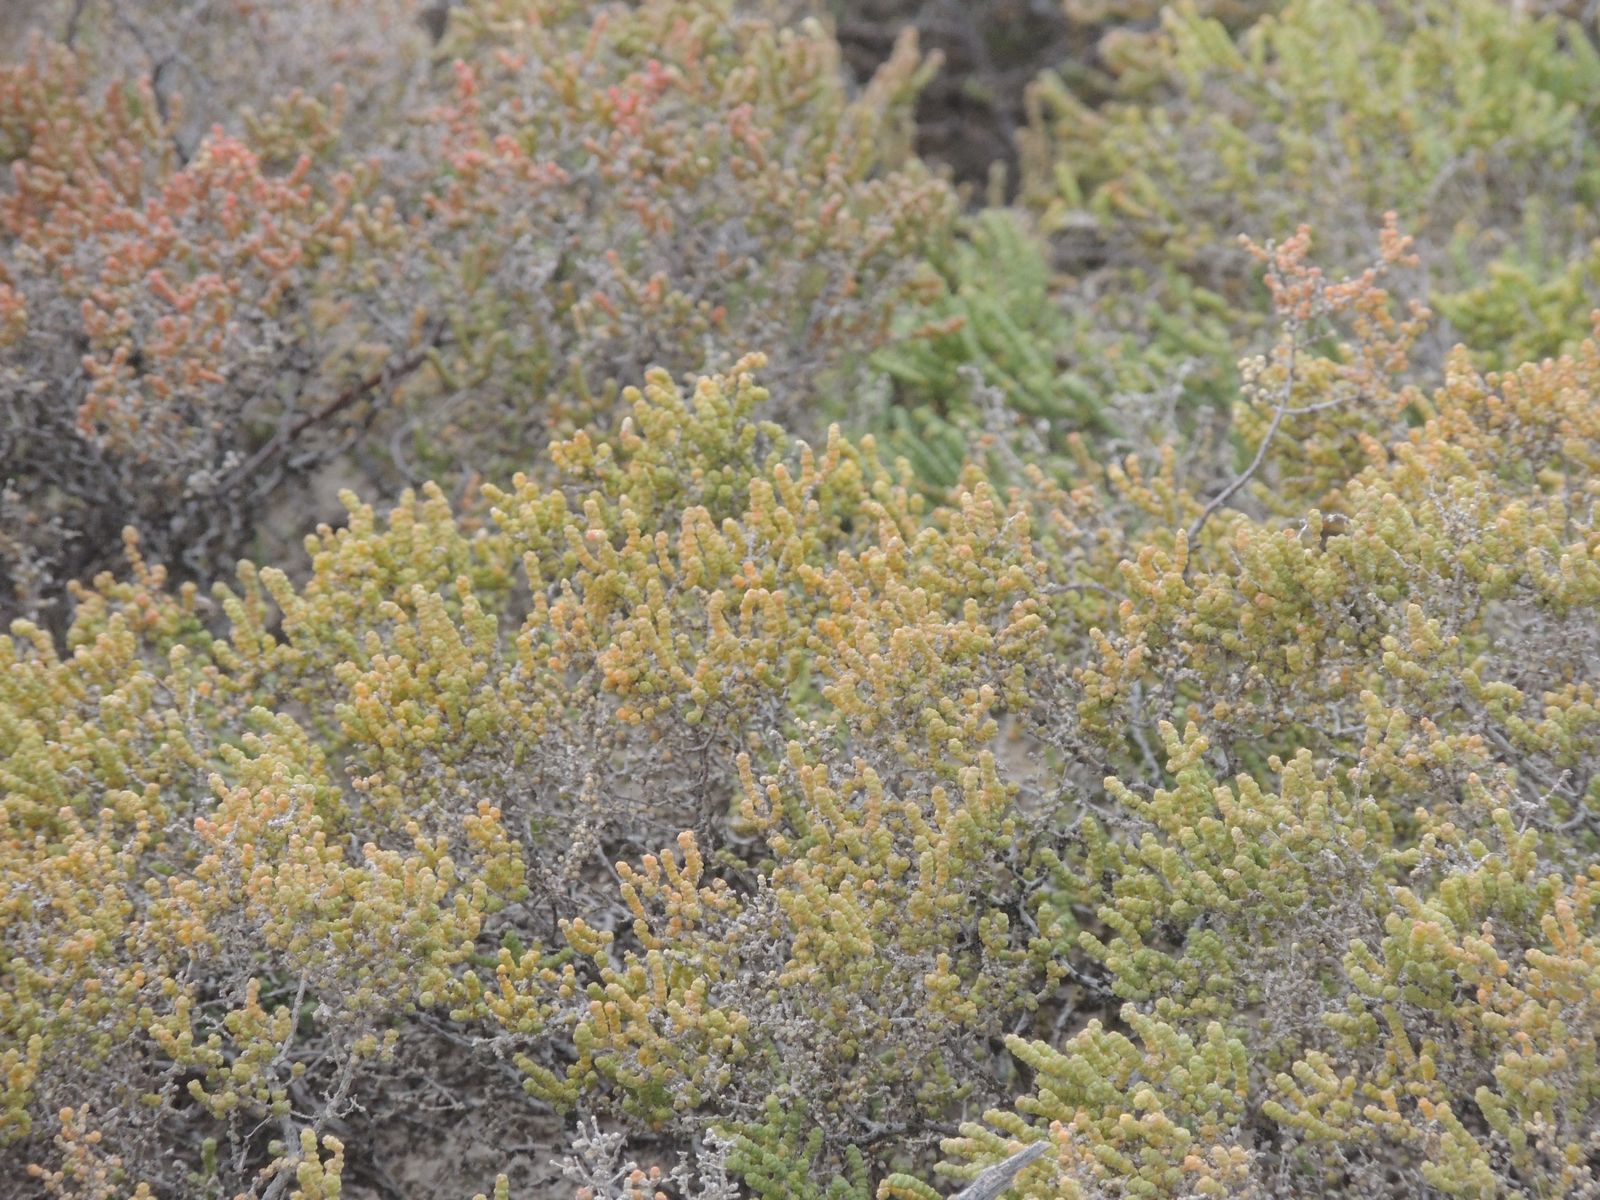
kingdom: Plantae
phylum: Tracheophyta
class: Magnoliopsida
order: Caryophyllales
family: Amaranthaceae
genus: Halocnemum
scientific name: Halocnemum strobilaceum
